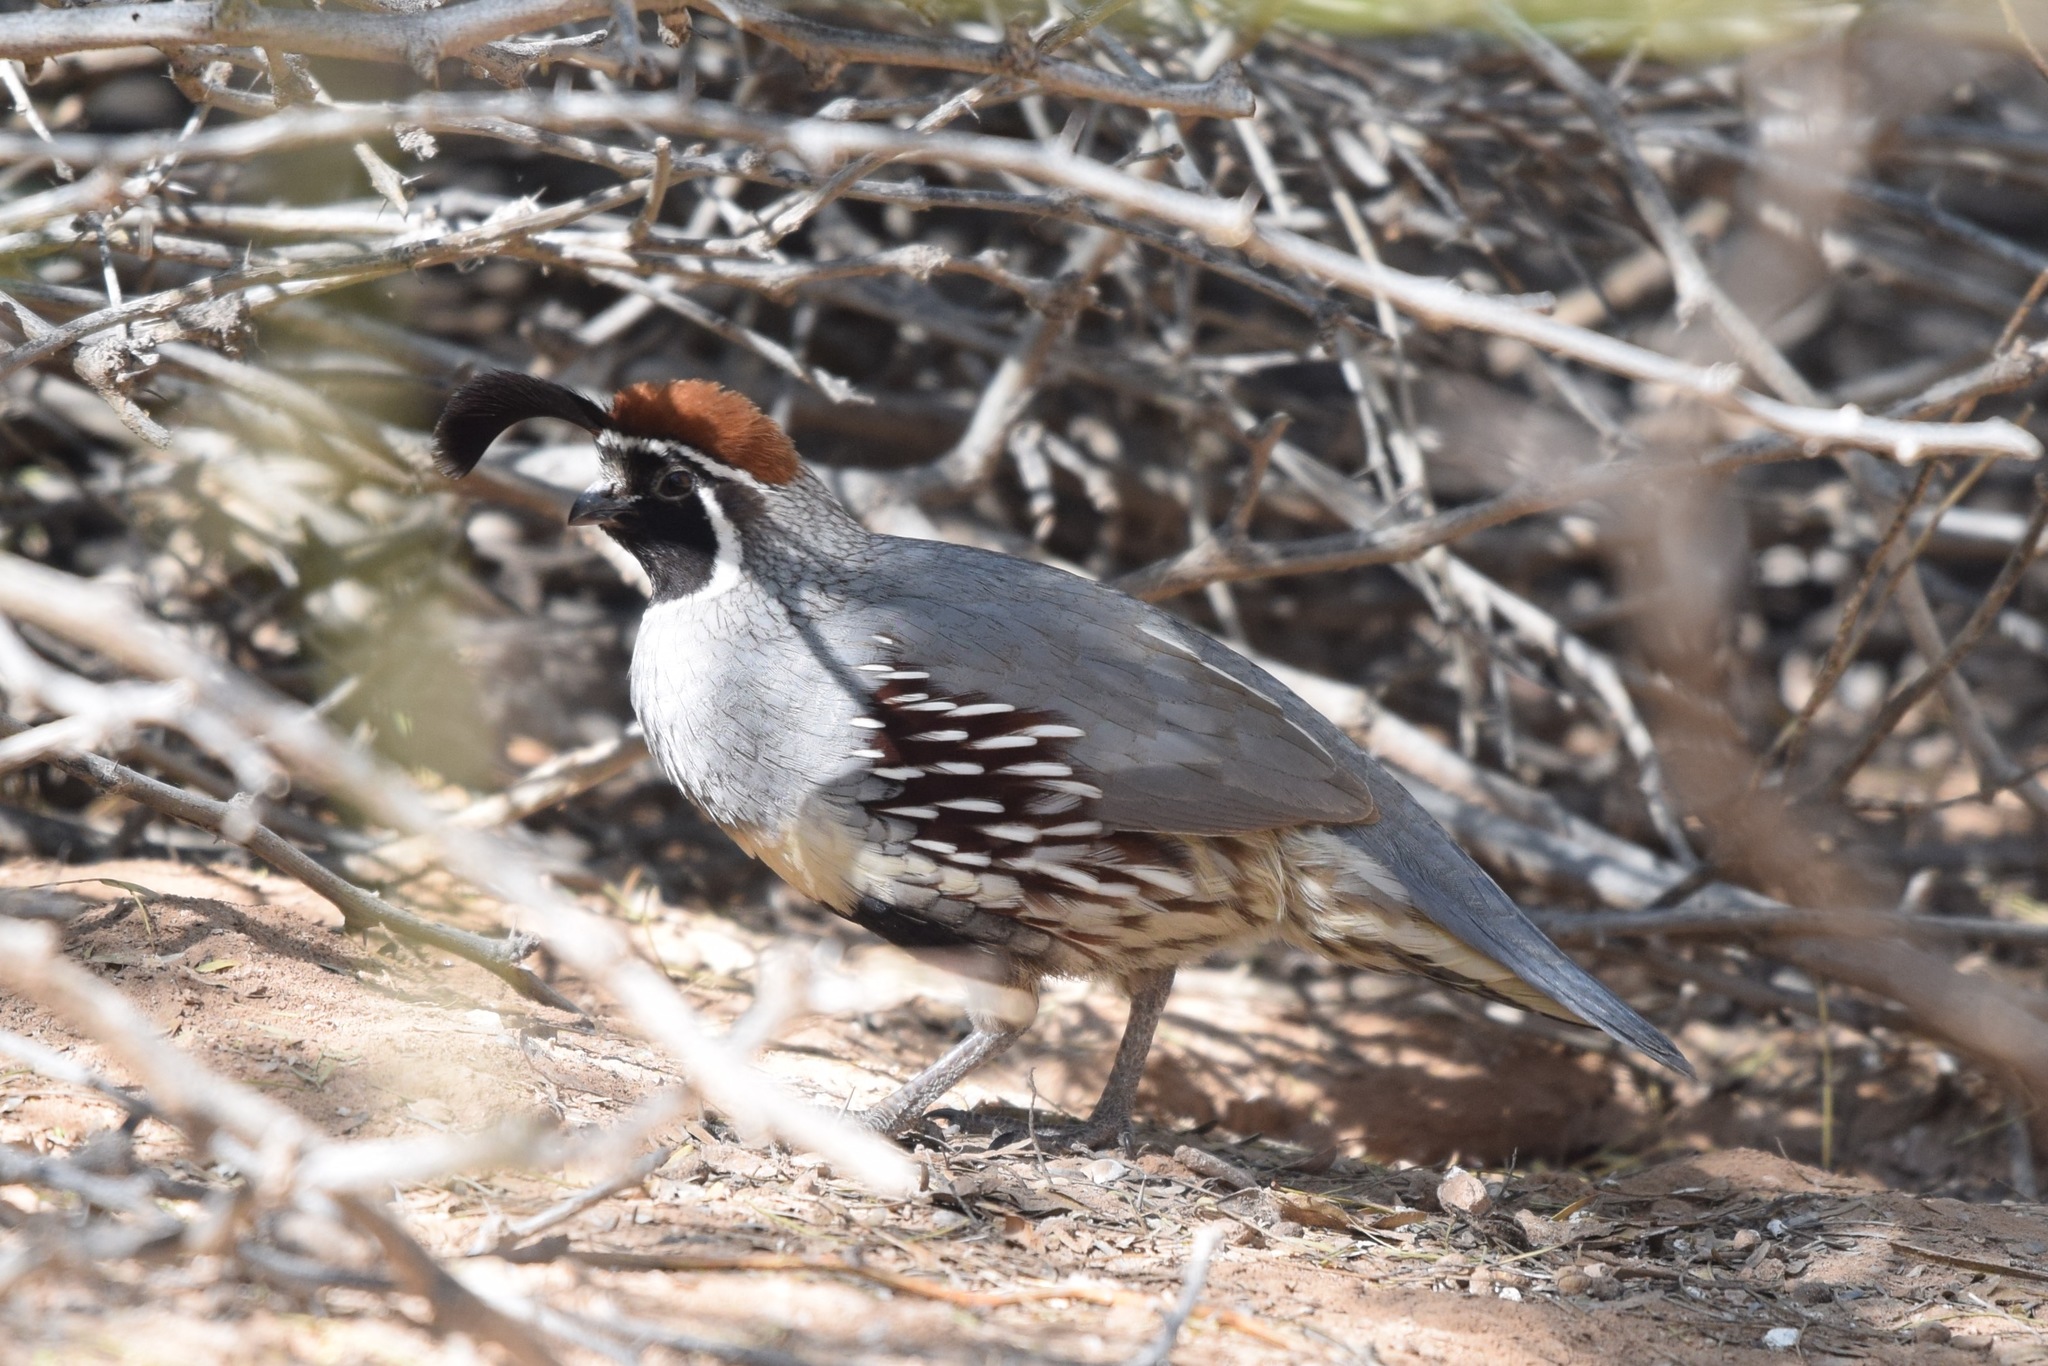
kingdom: Animalia
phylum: Chordata
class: Aves
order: Galliformes
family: Odontophoridae
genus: Callipepla
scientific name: Callipepla gambelii
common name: Gambel's quail
